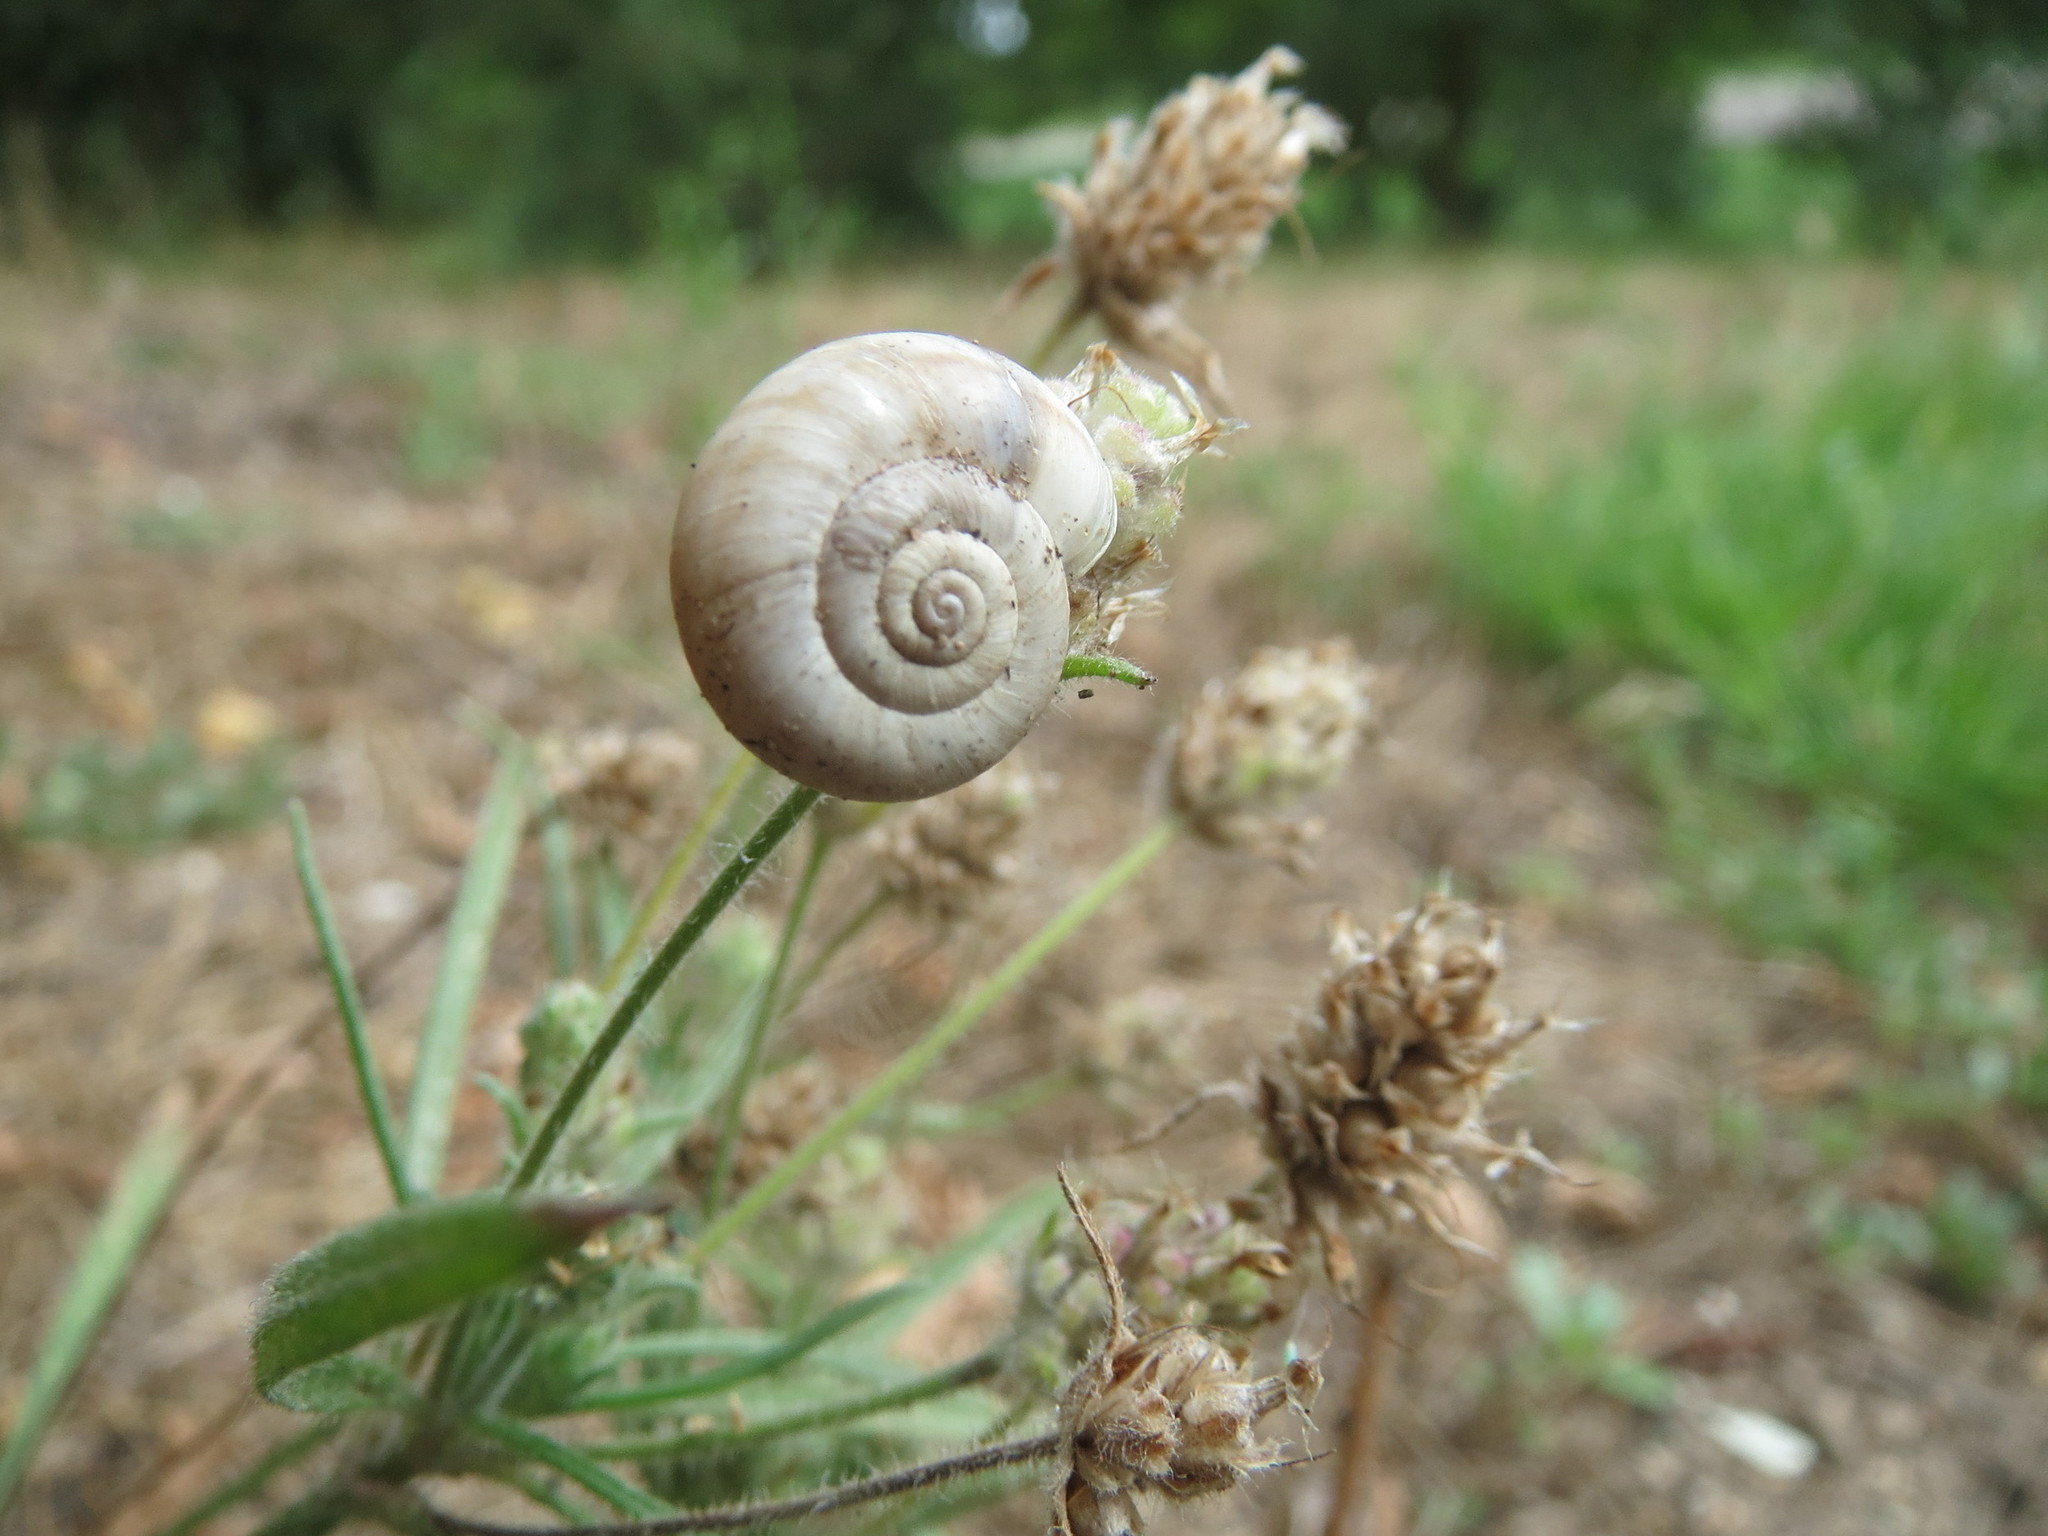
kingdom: Plantae
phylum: Tracheophyta
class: Magnoliopsida
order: Lamiales
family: Plantaginaceae
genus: Plantago
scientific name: Plantago arenaria
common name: Branched plantain
